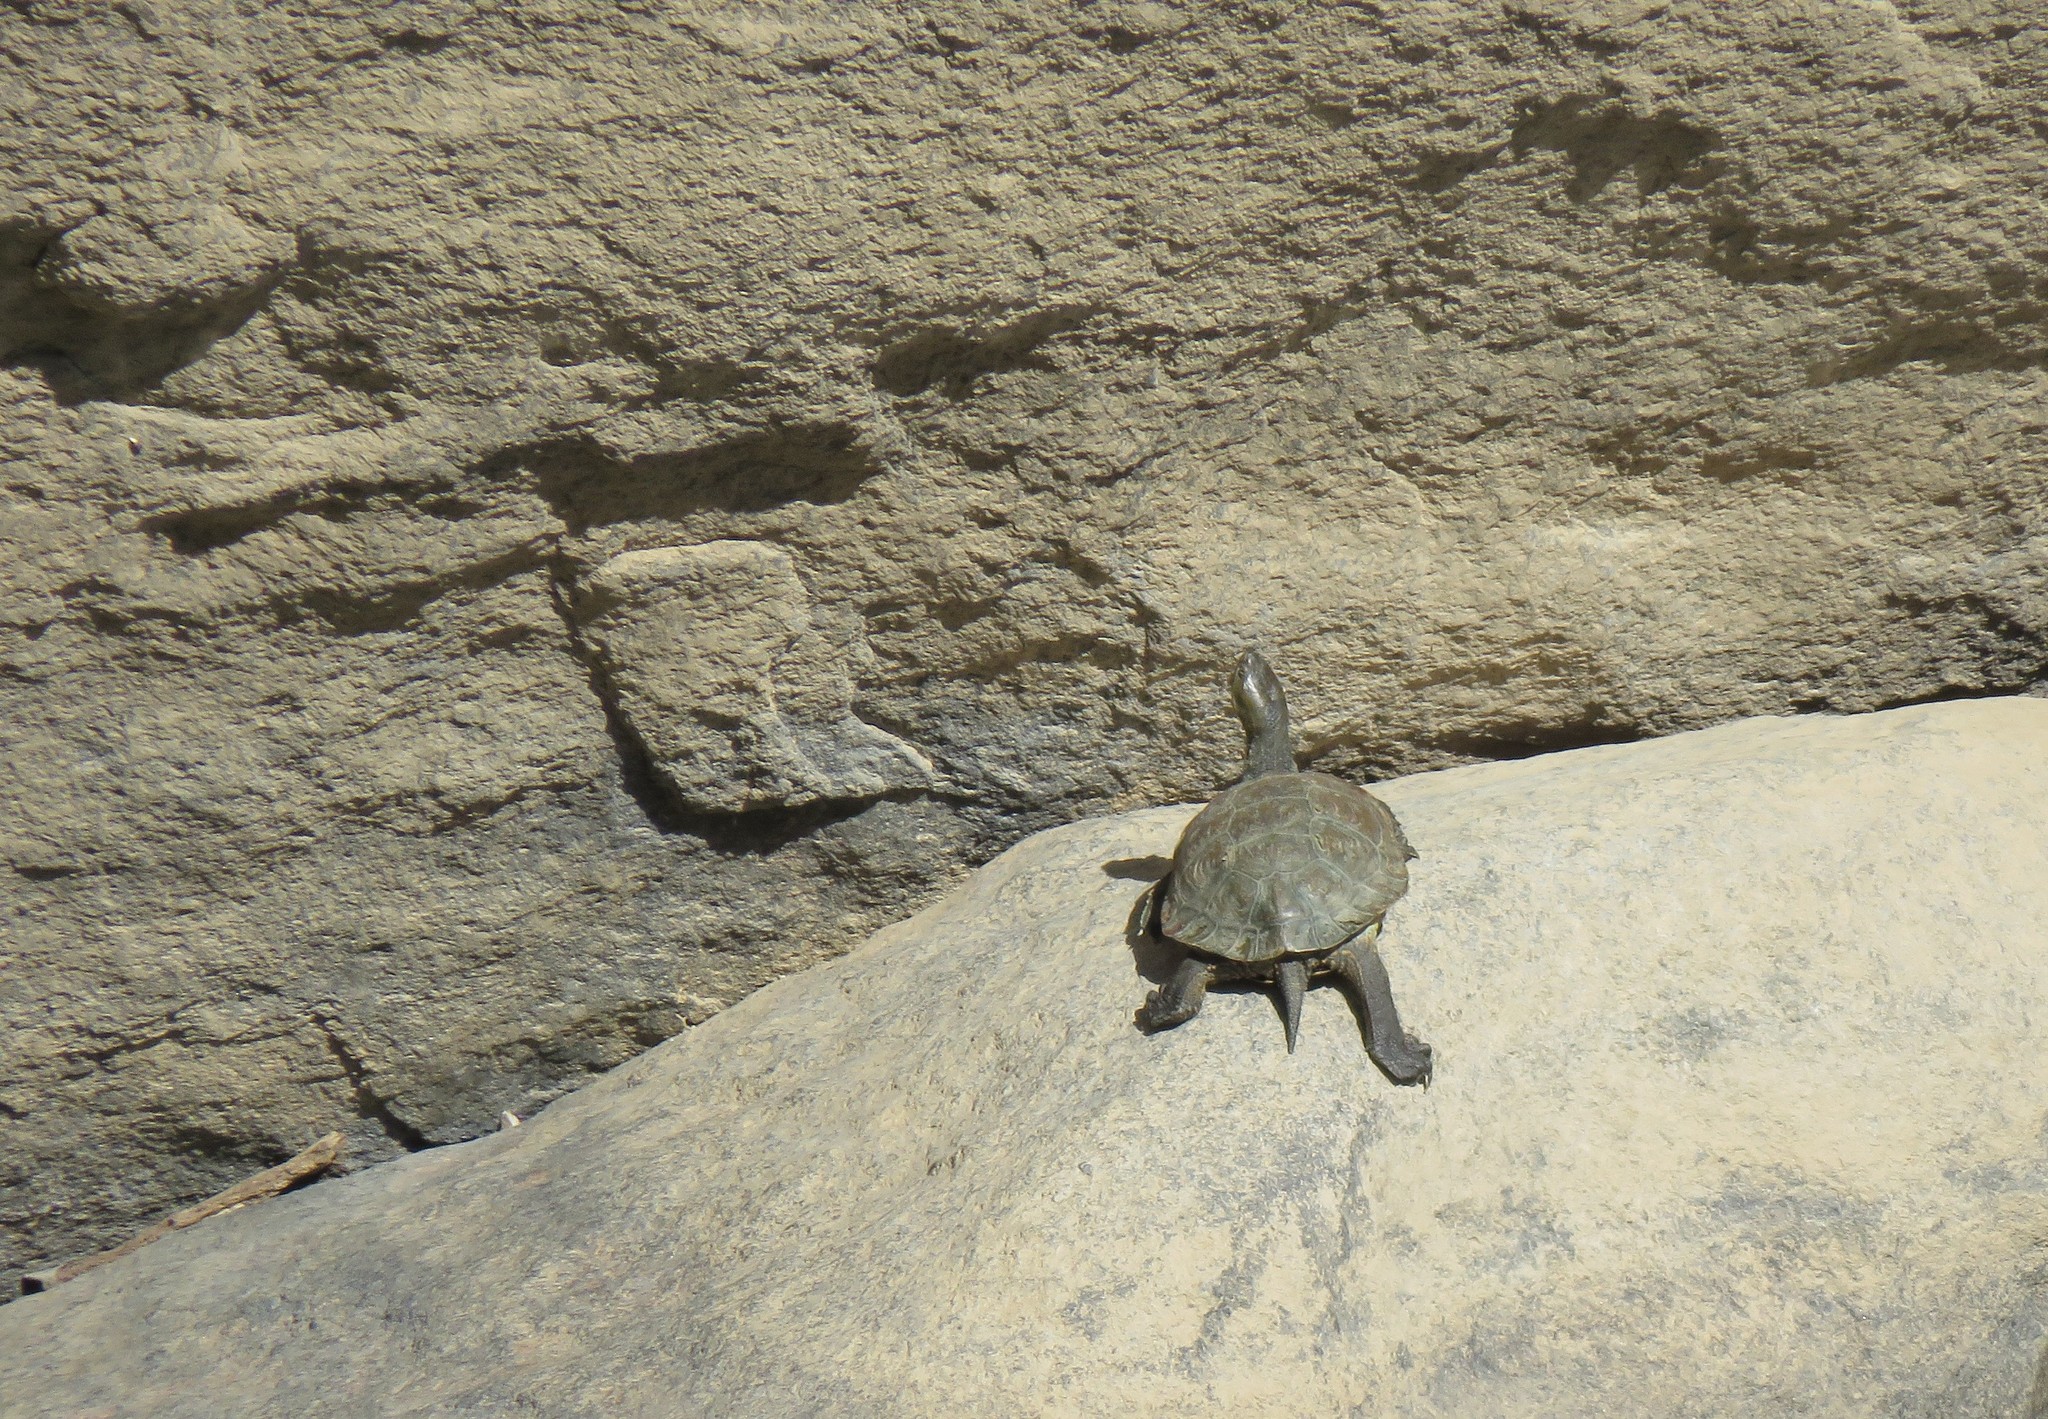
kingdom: Animalia
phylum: Chordata
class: Testudines
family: Geoemydidae
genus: Mauremys
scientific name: Mauremys leprosa
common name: Mediterranean pond turtle
